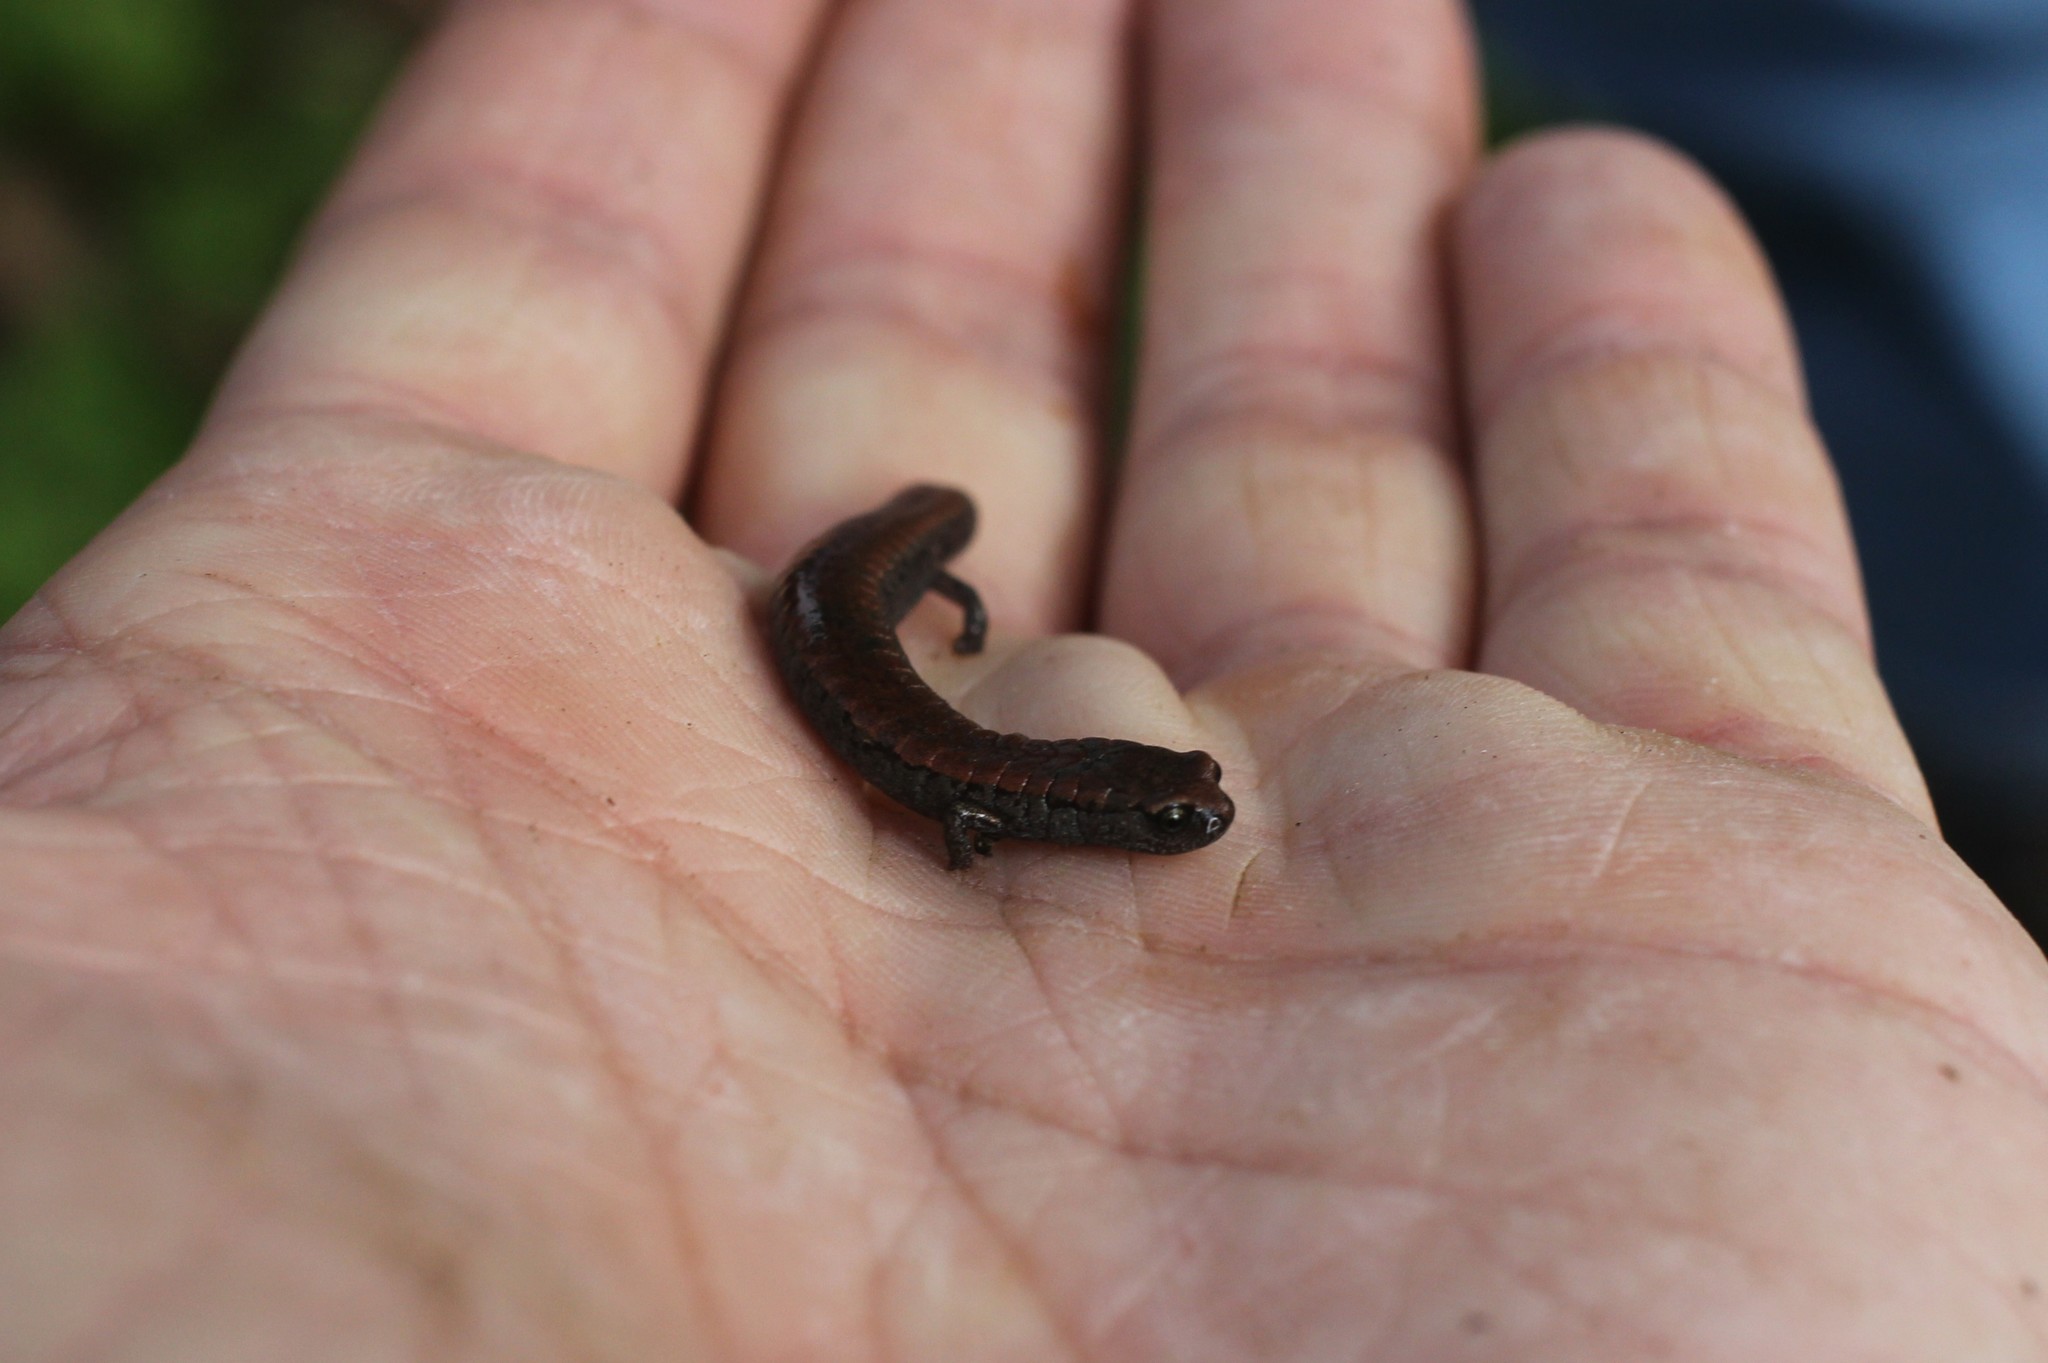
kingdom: Animalia
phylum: Chordata
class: Amphibia
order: Caudata
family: Plethodontidae
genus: Batrachoseps
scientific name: Batrachoseps attenuatus
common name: California slender salamander
